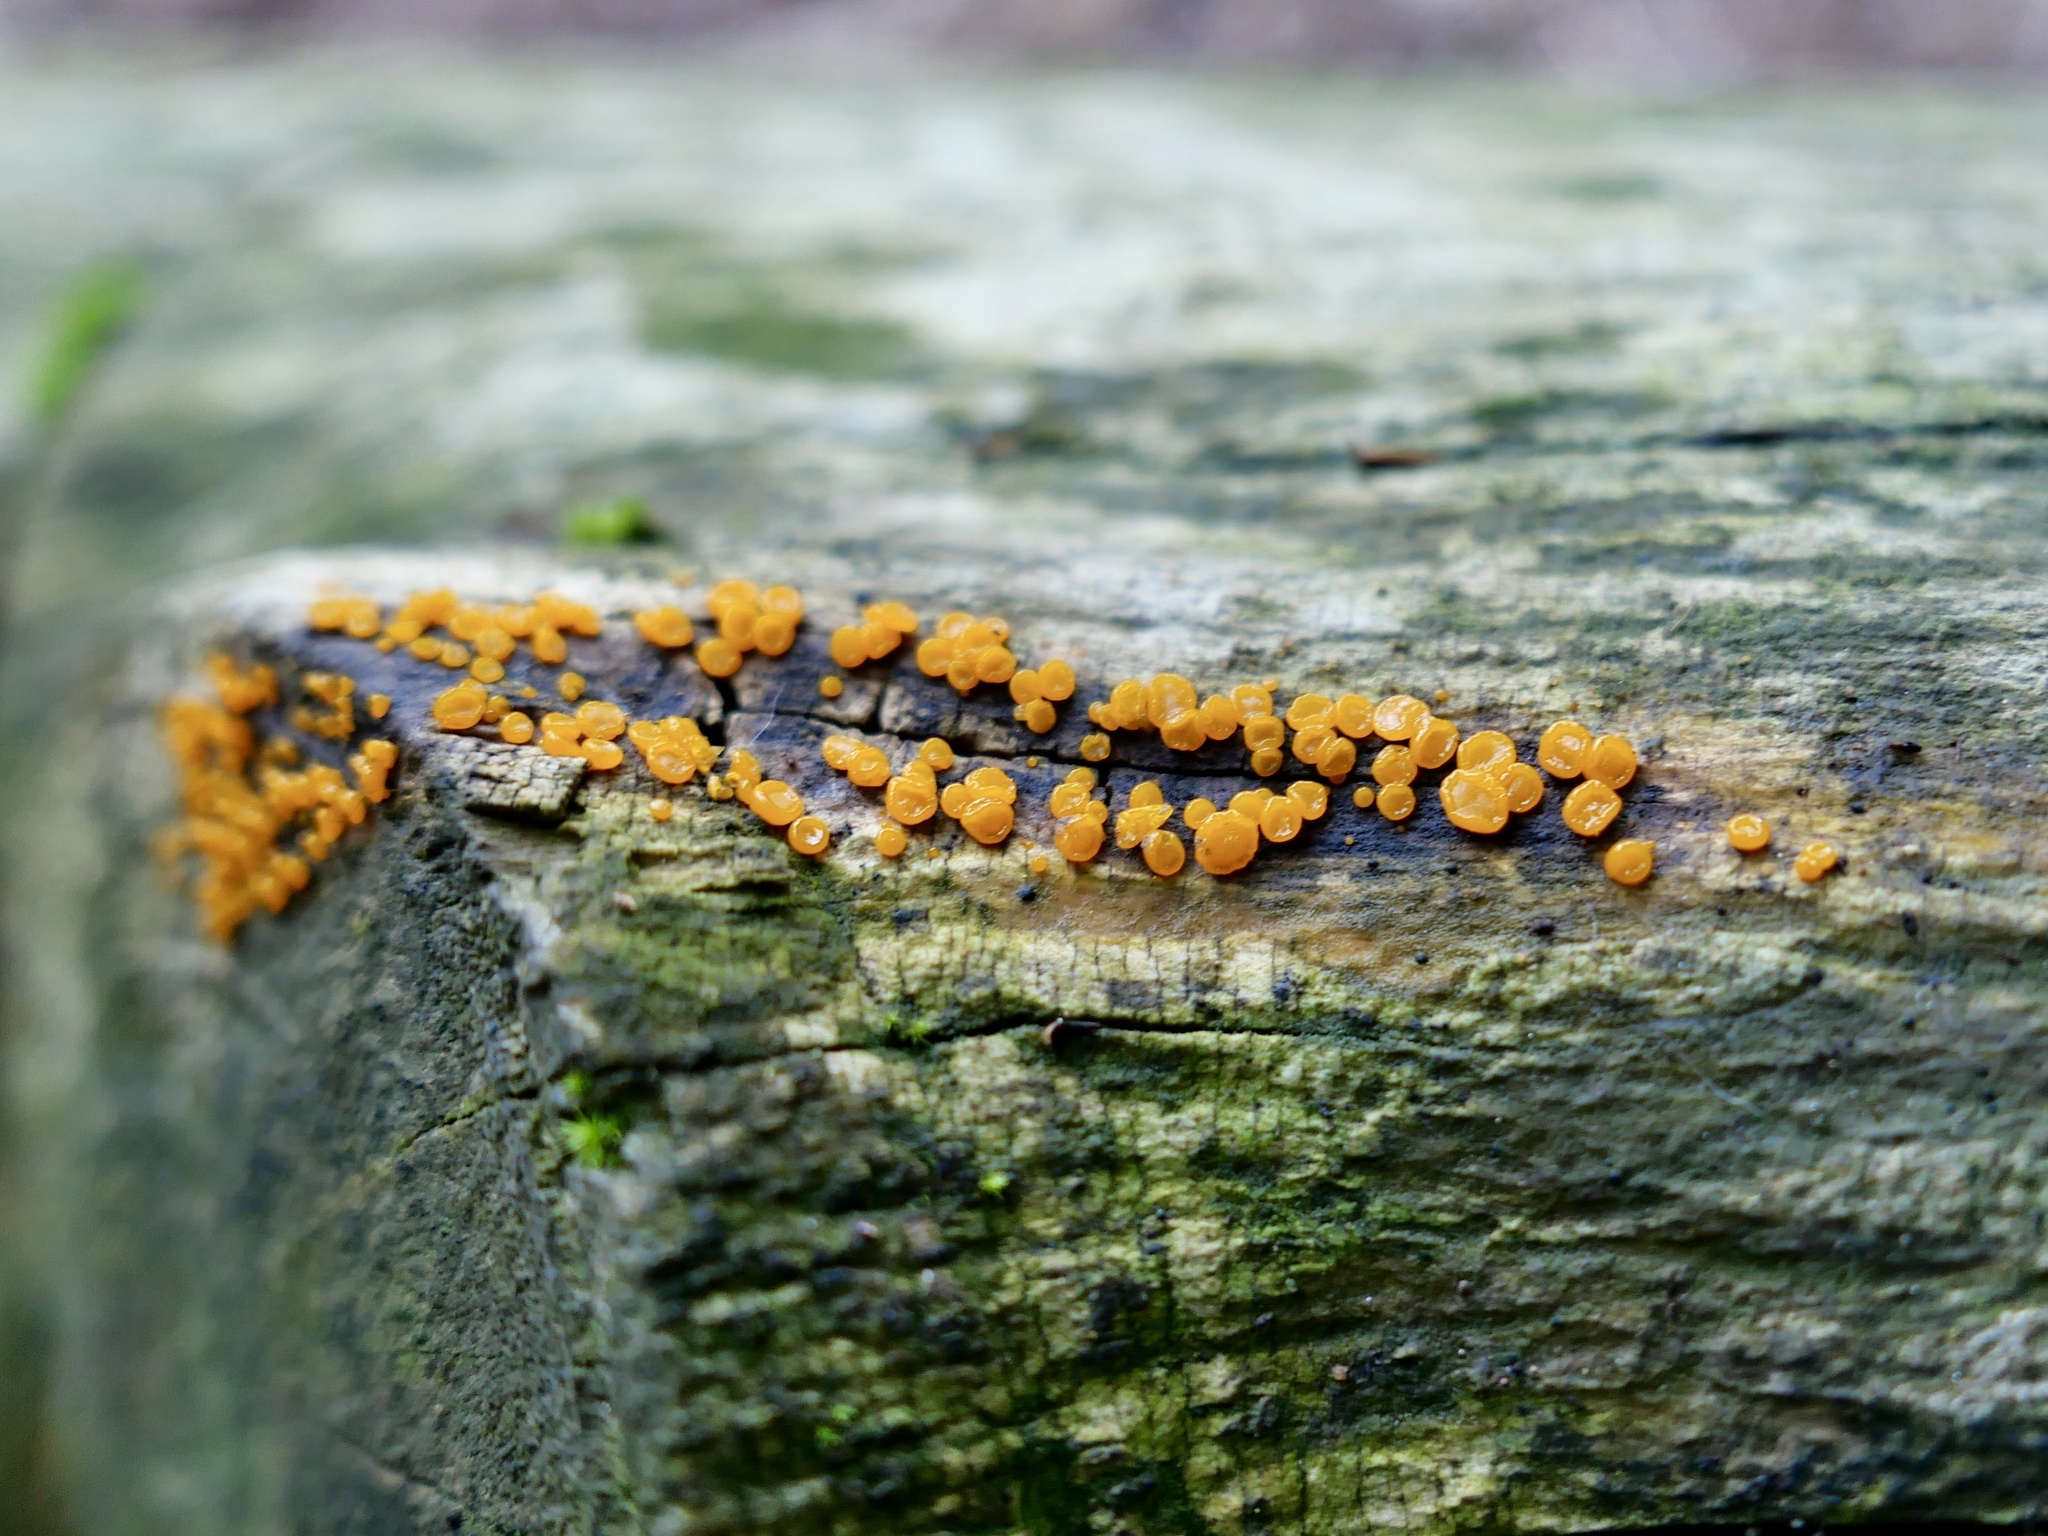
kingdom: Fungi
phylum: Basidiomycota
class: Dacrymycetes
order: Dacrymycetales
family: Dacrymycetaceae
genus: Dacrymyces
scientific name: Dacrymyces stillatus
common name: Common jelly spot
